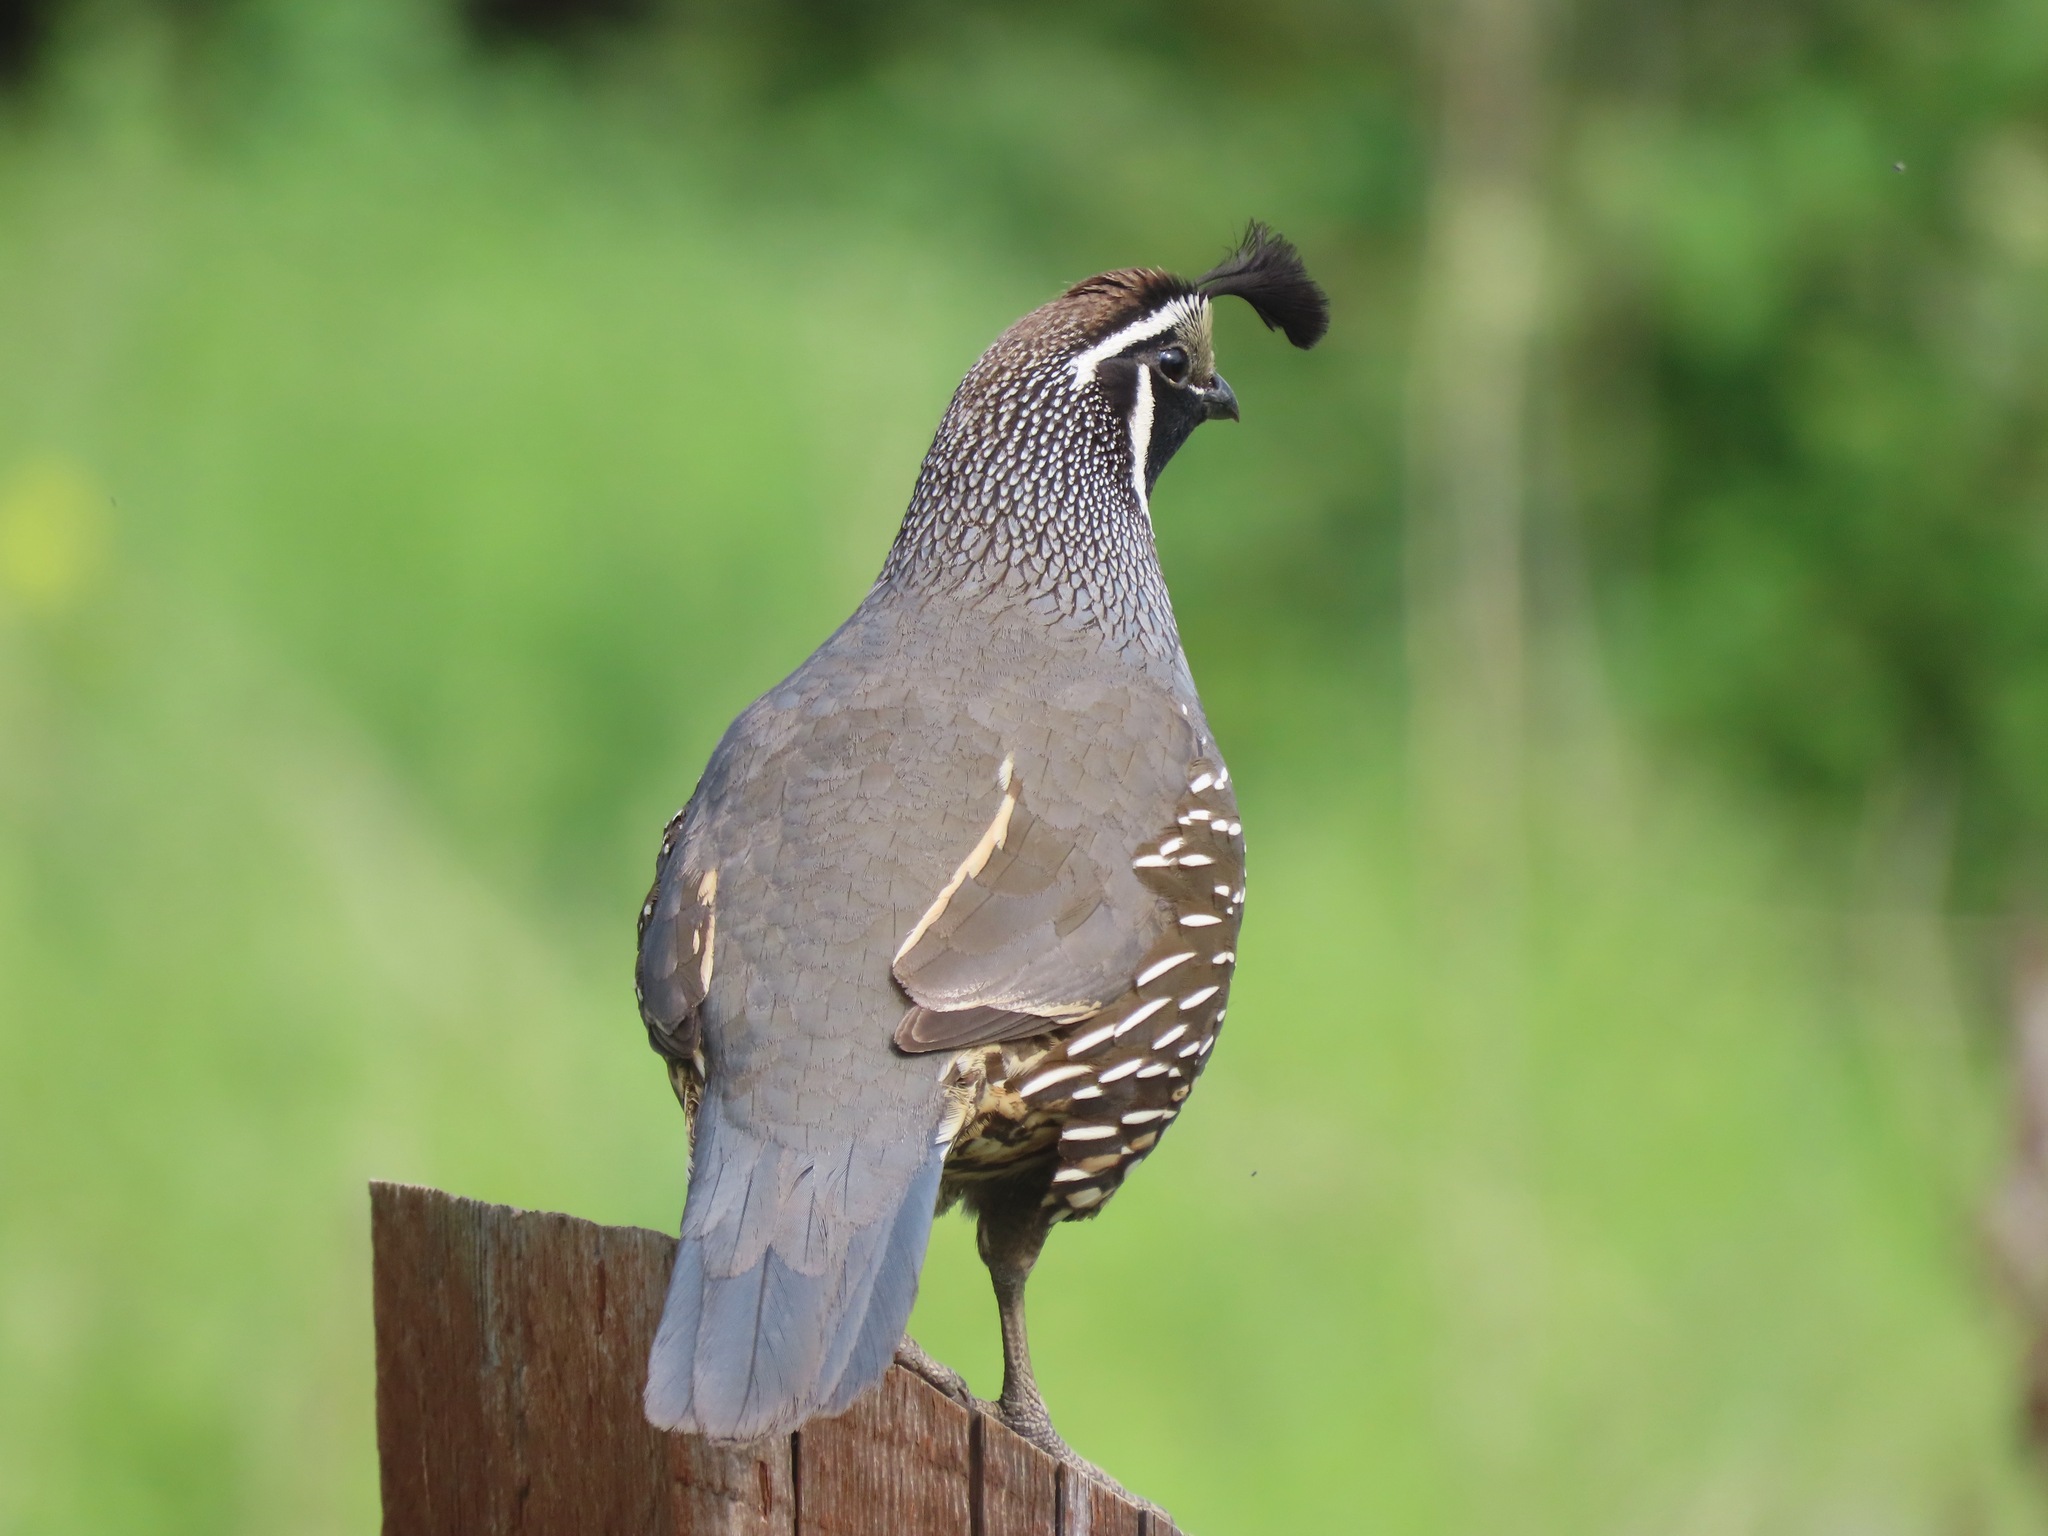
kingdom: Animalia
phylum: Chordata
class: Aves
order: Galliformes
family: Odontophoridae
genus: Callipepla
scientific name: Callipepla californica
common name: California quail
